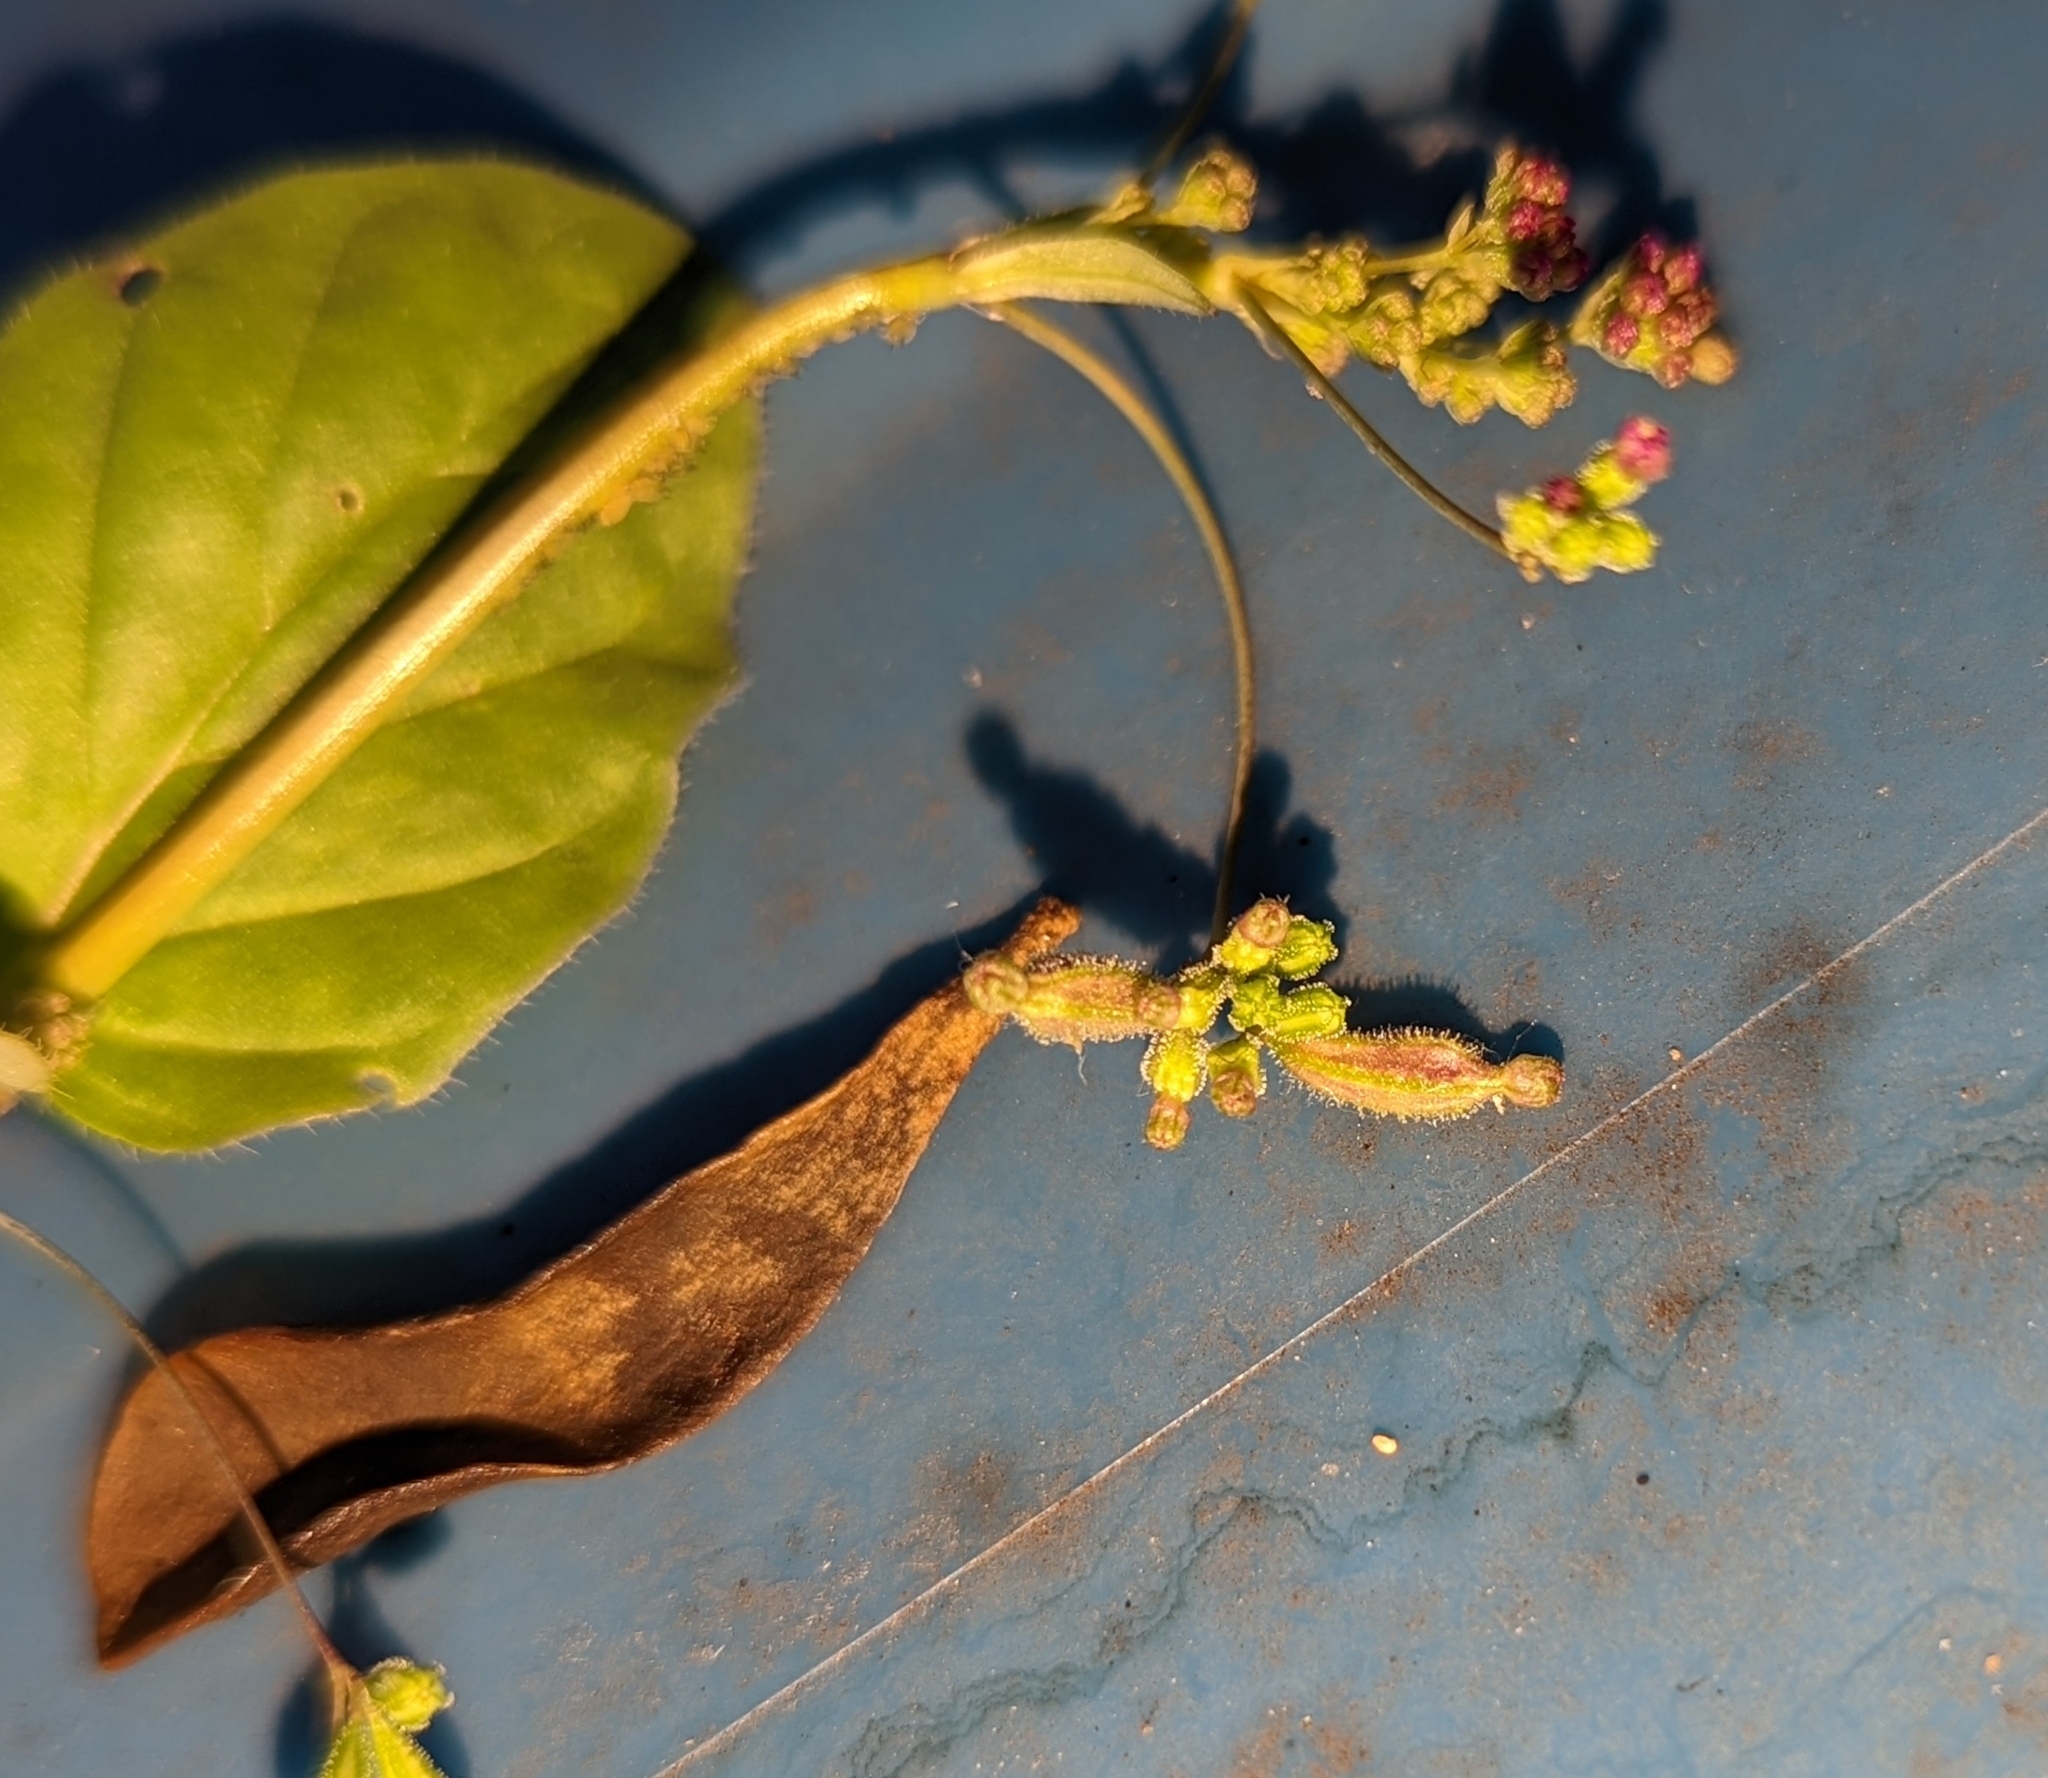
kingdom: Plantae
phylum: Tracheophyta
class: Magnoliopsida
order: Caryophyllales
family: Nyctaginaceae
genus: Boerhavia
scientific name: Boerhavia diffusa
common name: Red spiderling
